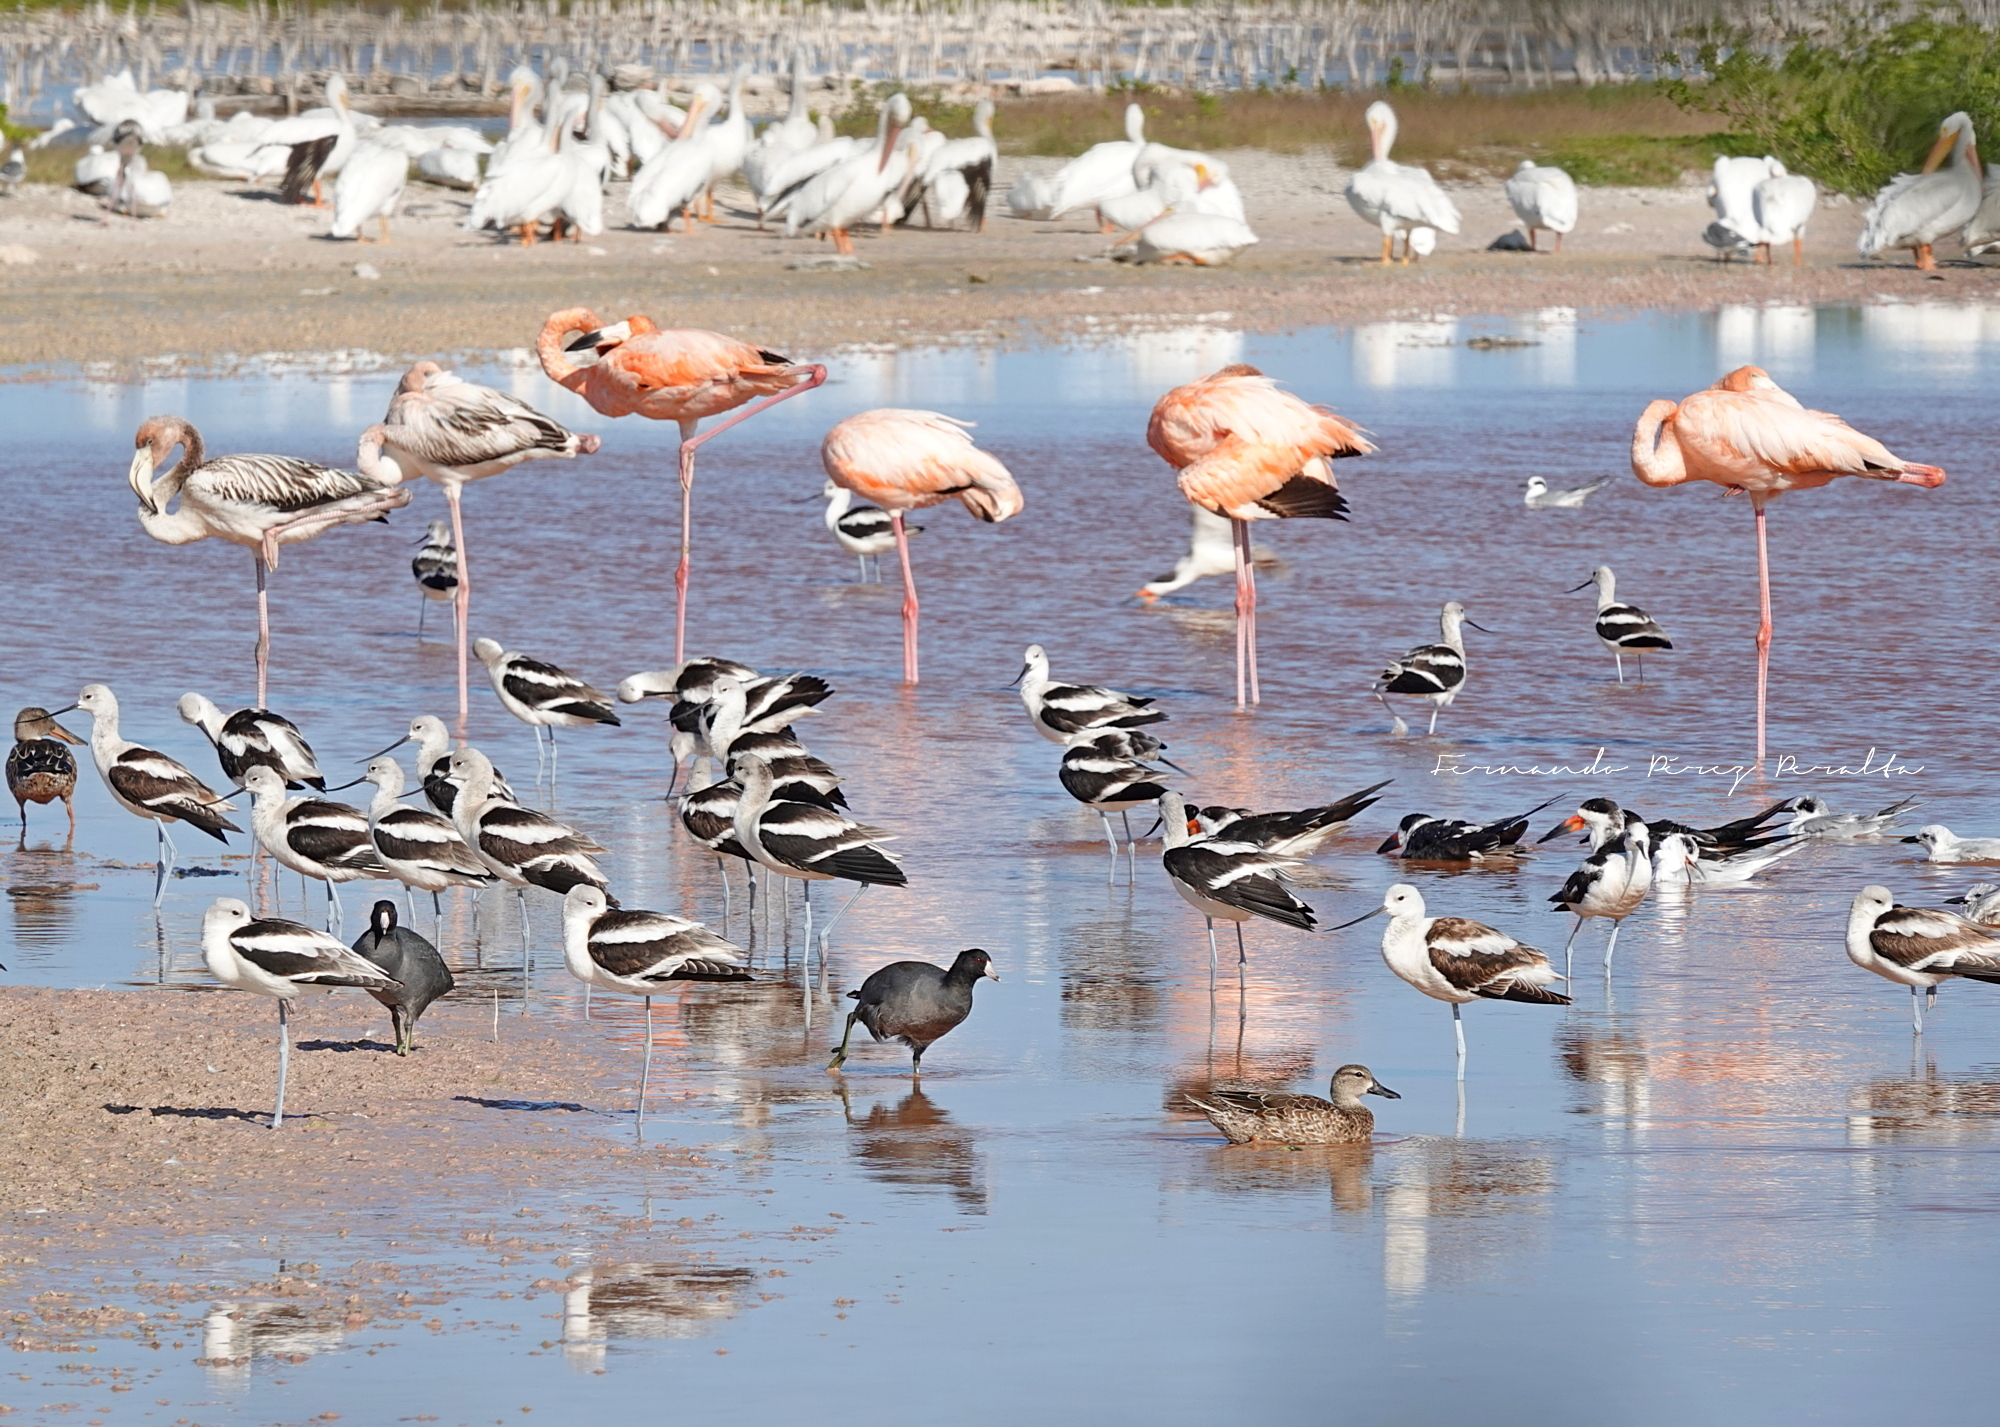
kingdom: Animalia
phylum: Chordata
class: Aves
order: Anseriformes
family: Anatidae
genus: Spatula
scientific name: Spatula discors
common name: Blue-winged teal
